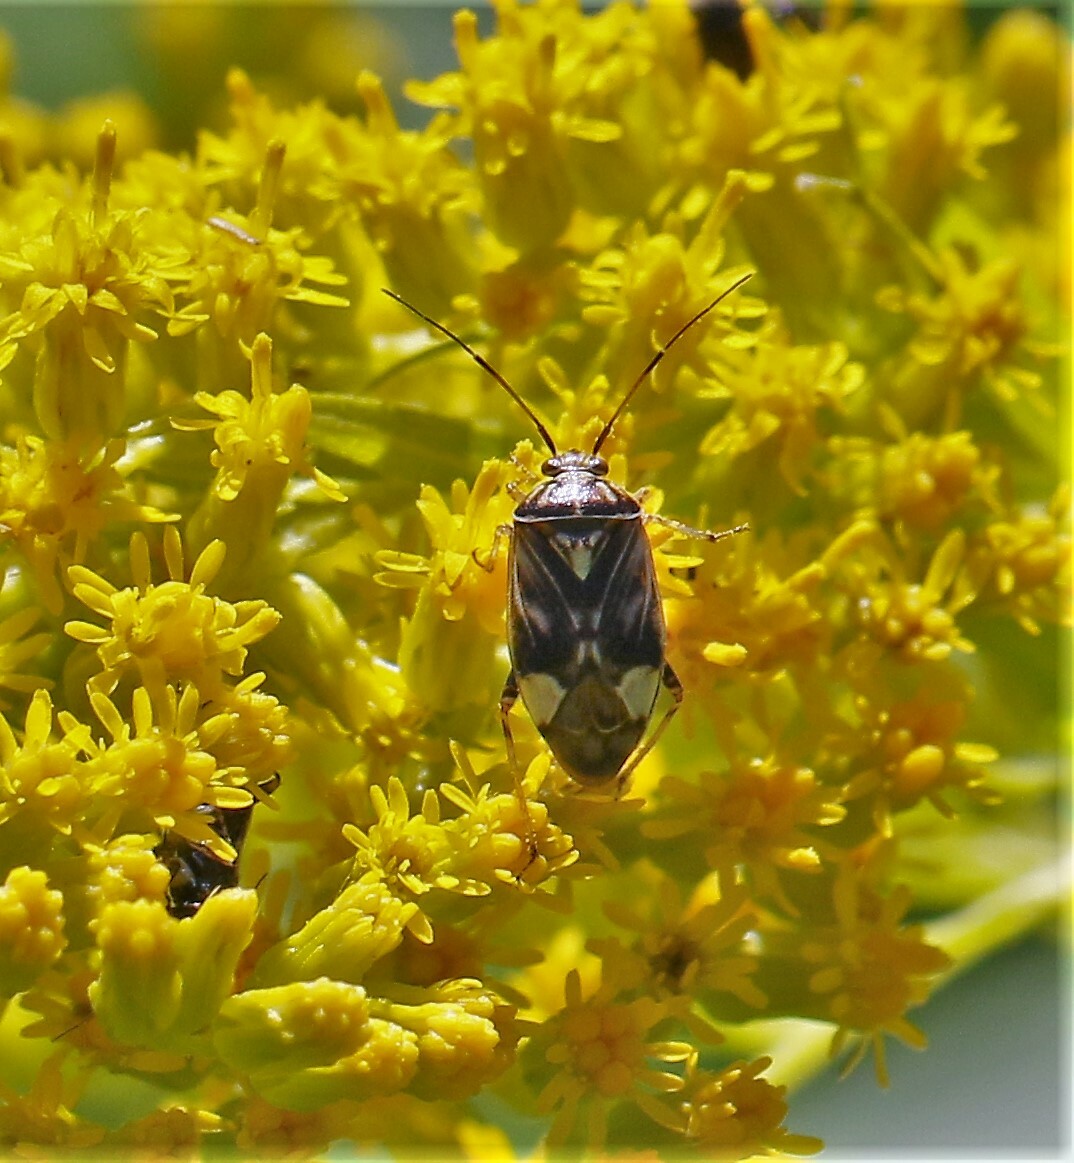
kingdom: Animalia
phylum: Arthropoda
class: Insecta
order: Hemiptera
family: Miridae
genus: Lygus
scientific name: Lygus lineolaris
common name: North american tarnished plant bug
